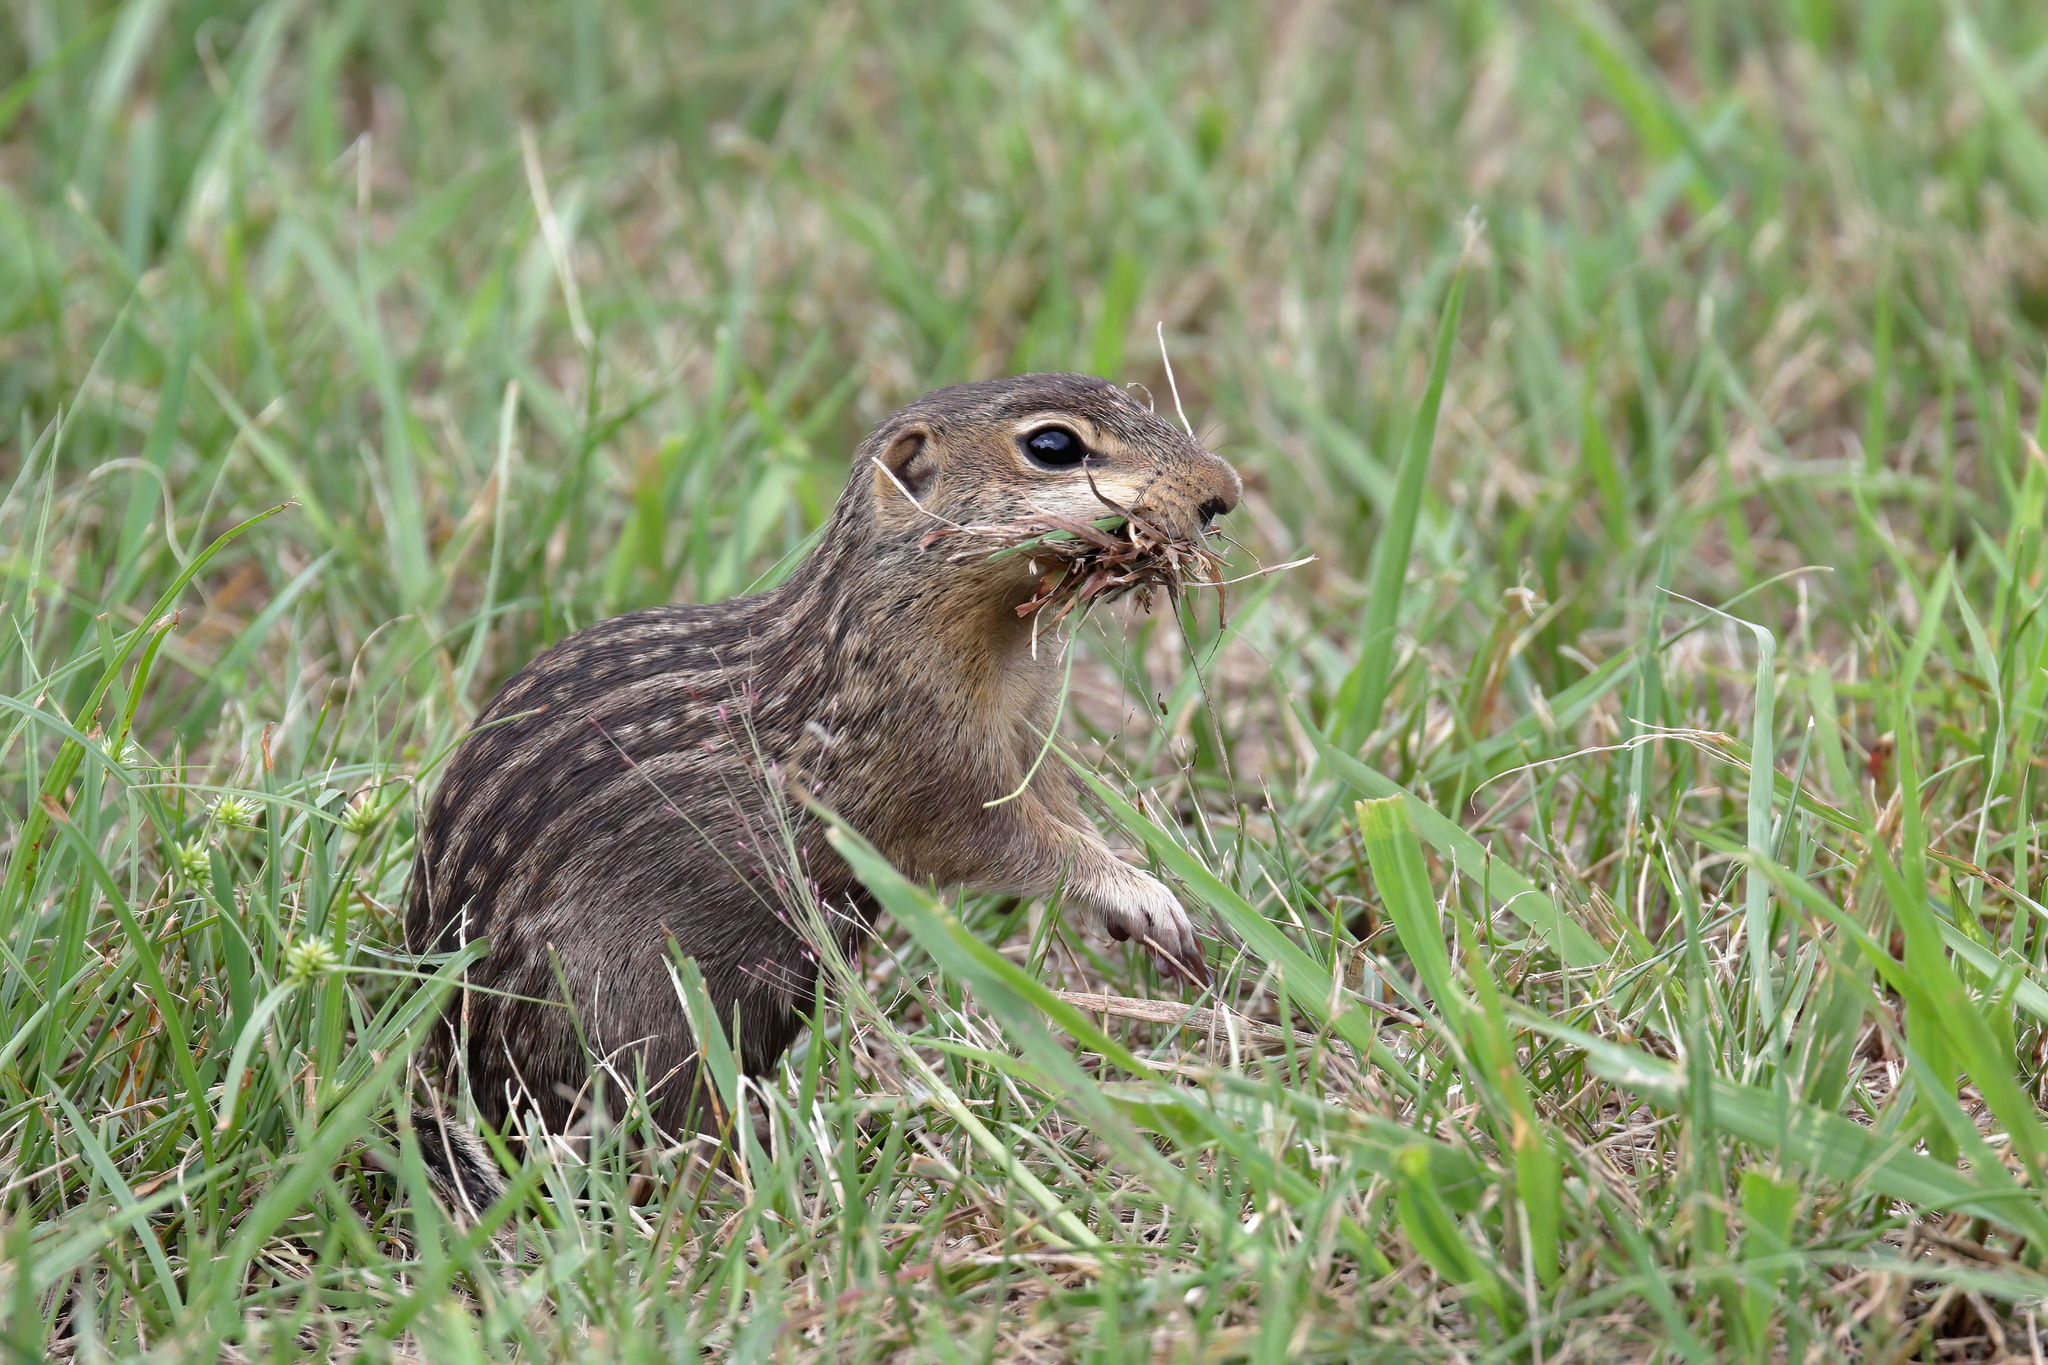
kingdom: Animalia
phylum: Chordata
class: Mammalia
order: Rodentia
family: Sciuridae
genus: Ictidomys
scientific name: Ictidomys tridecemlineatus
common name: Thirteen-lined ground squirrel
